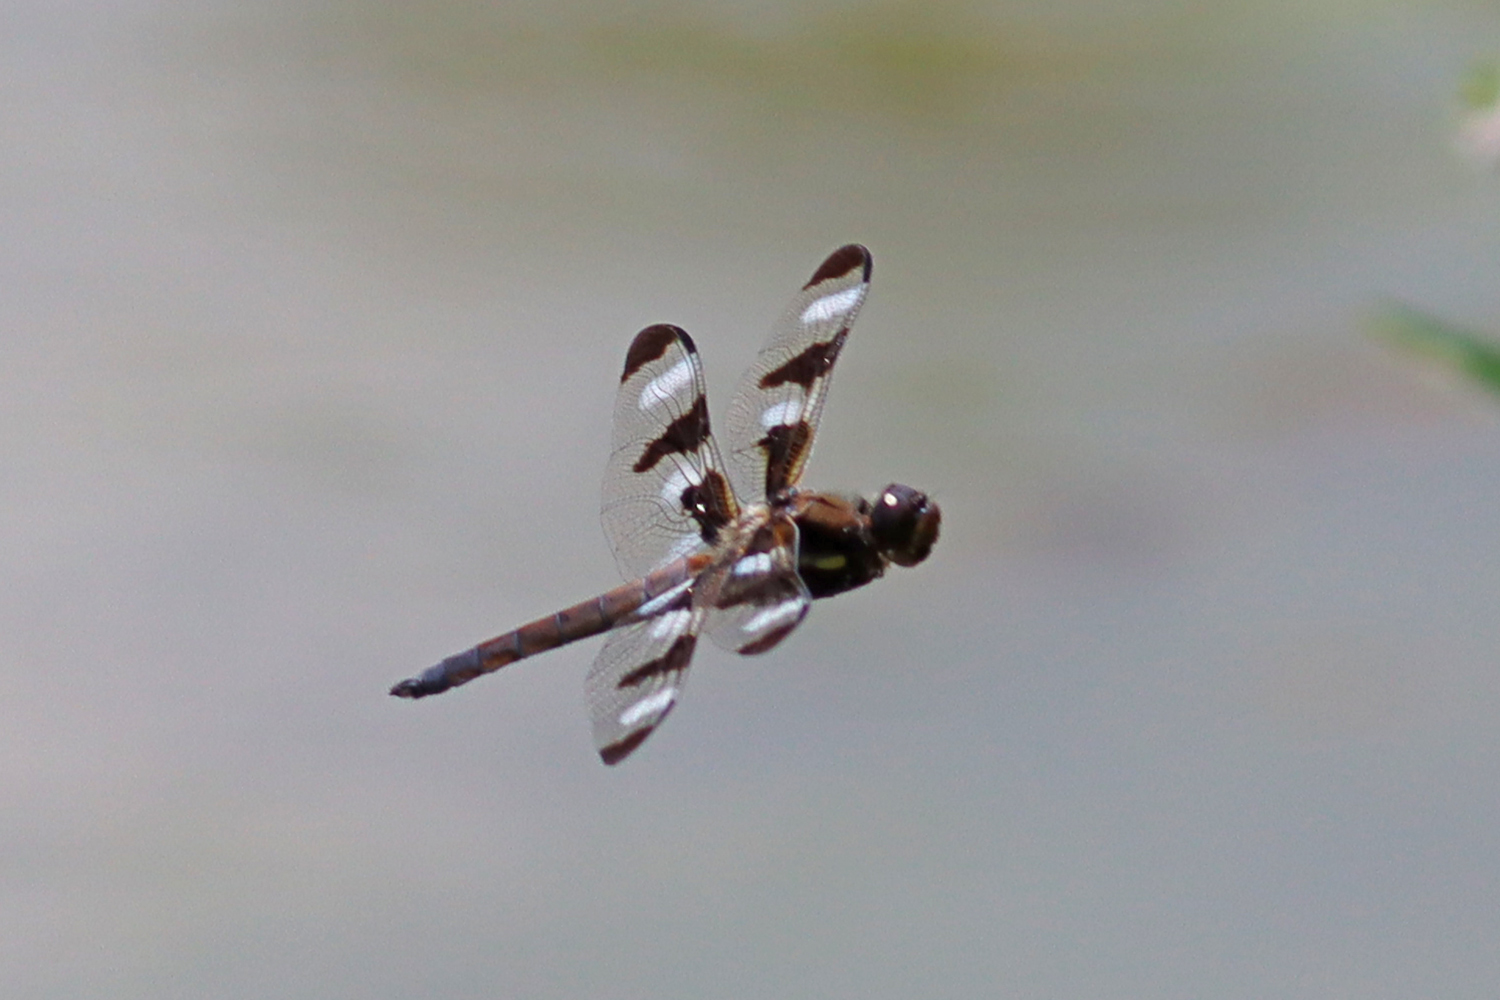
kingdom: Animalia
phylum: Arthropoda
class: Insecta
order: Odonata
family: Libellulidae
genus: Libellula
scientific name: Libellula pulchella
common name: Twelve-spotted skimmer
